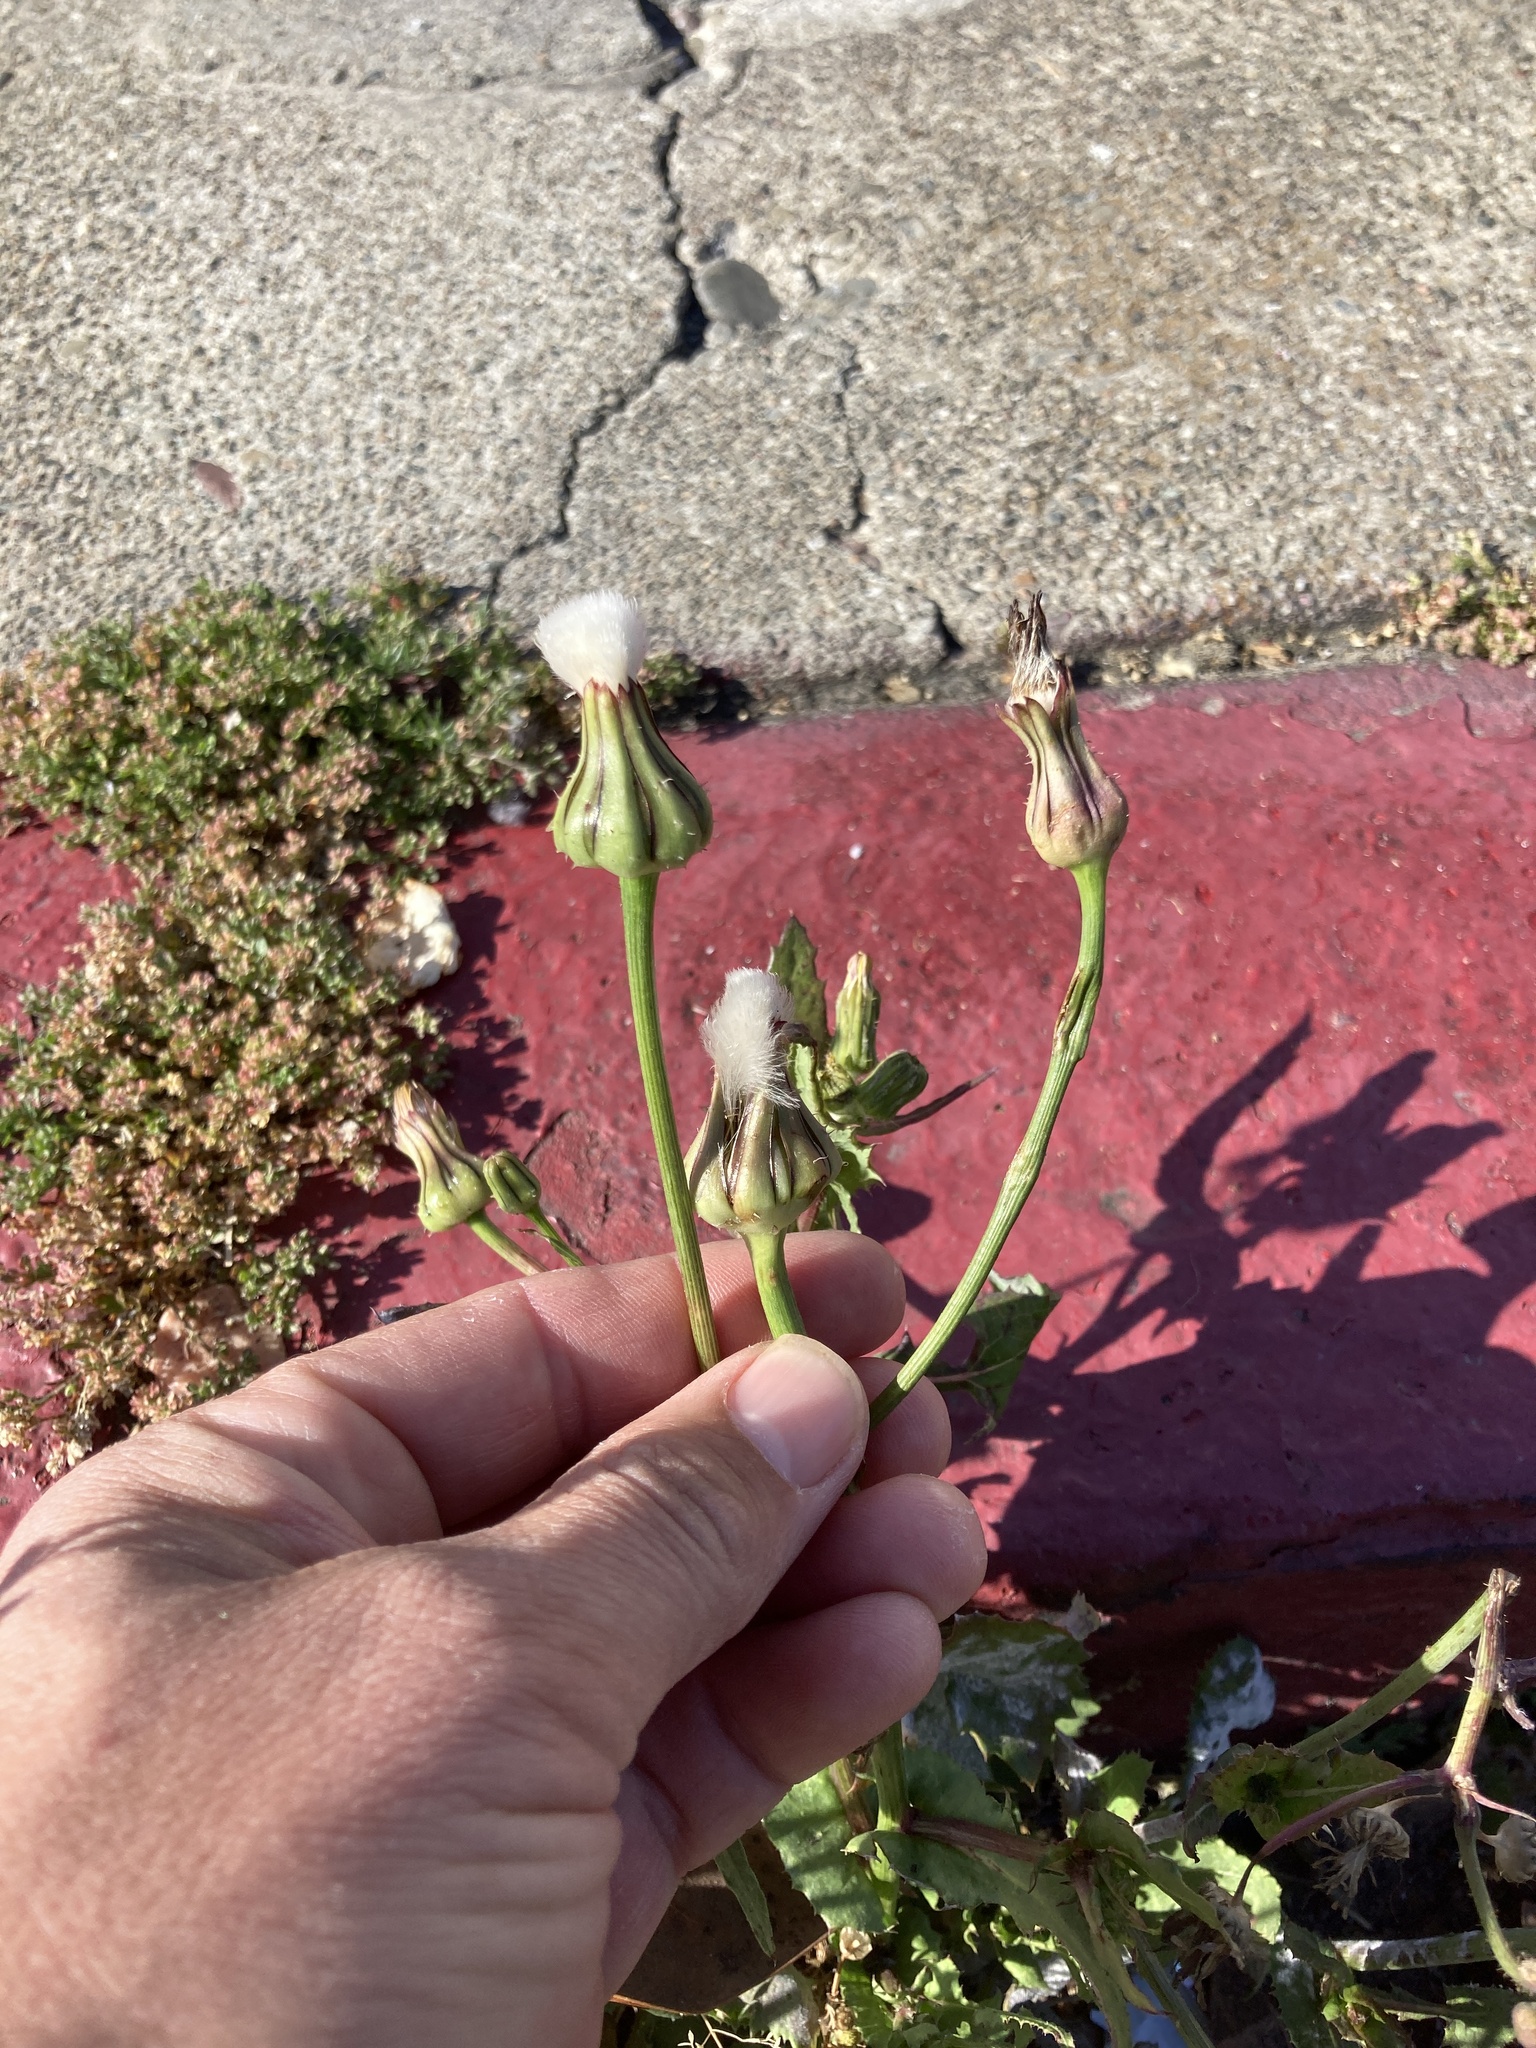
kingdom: Plantae
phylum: Tracheophyta
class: Magnoliopsida
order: Asterales
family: Asteraceae
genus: Urospermum
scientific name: Urospermum picroides
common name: False hawkbit
